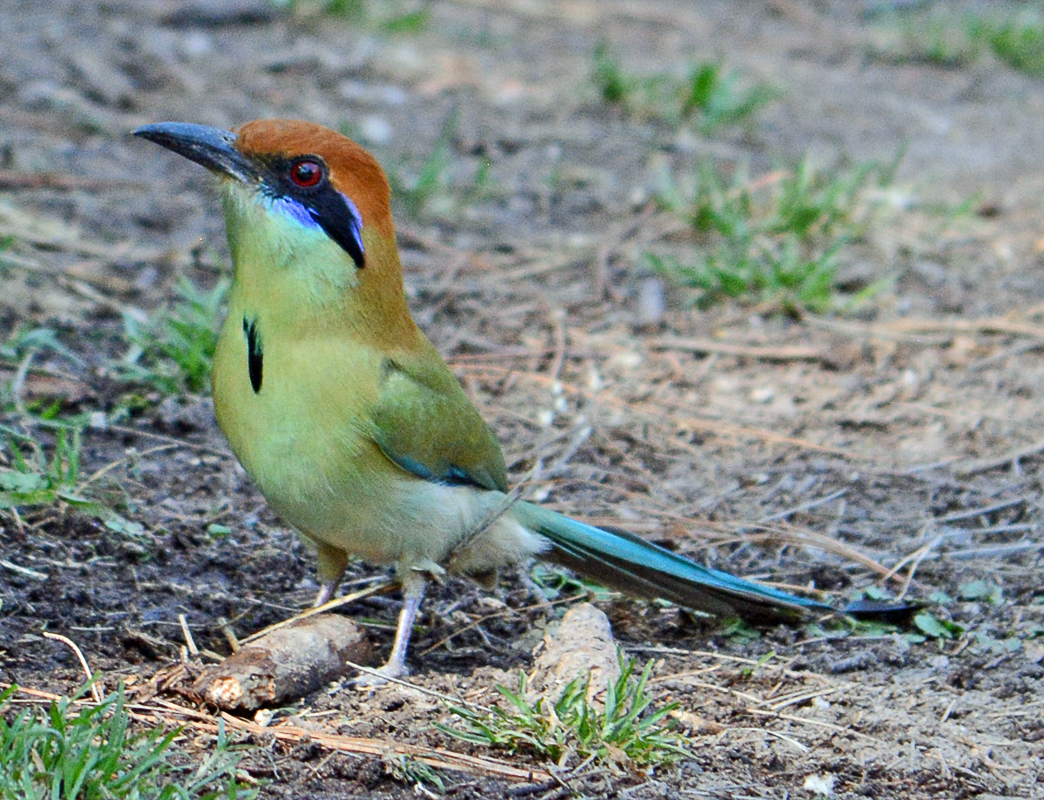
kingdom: Animalia
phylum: Chordata
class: Aves
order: Coraciiformes
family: Momotidae
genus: Momotus
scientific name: Momotus mexicanus
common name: Russet-crowned motmot
